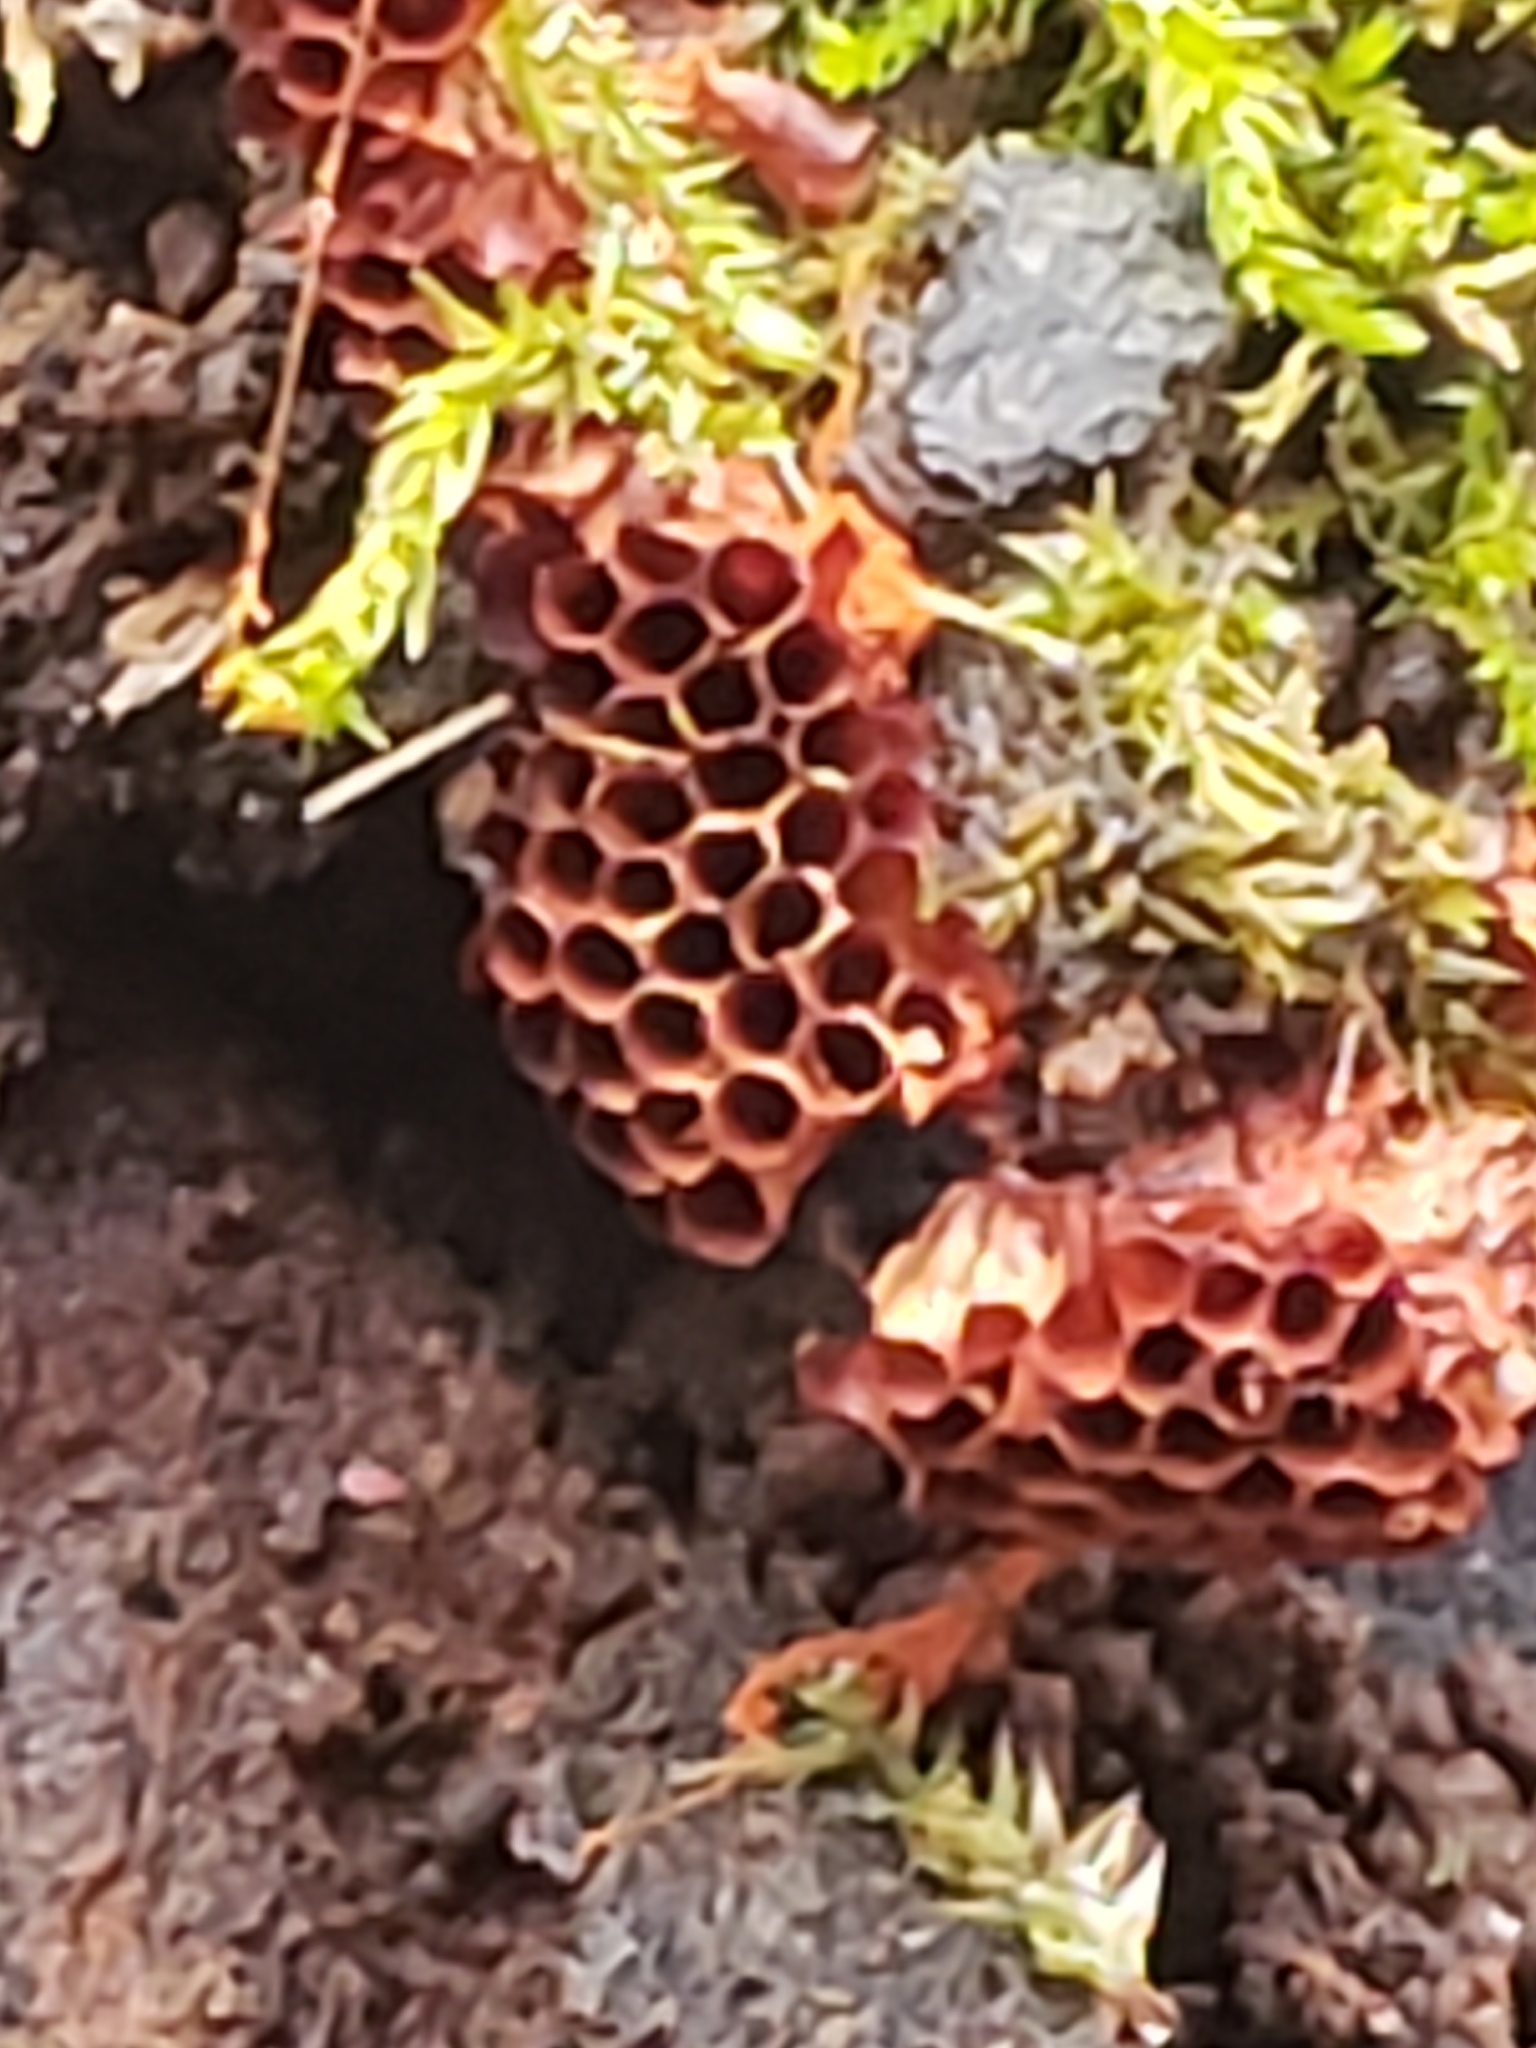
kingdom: Protozoa
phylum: Mycetozoa
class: Myxomycetes
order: Trichiales
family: Trichiaceae
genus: Metatrichia
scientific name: Metatrichia vesparia
